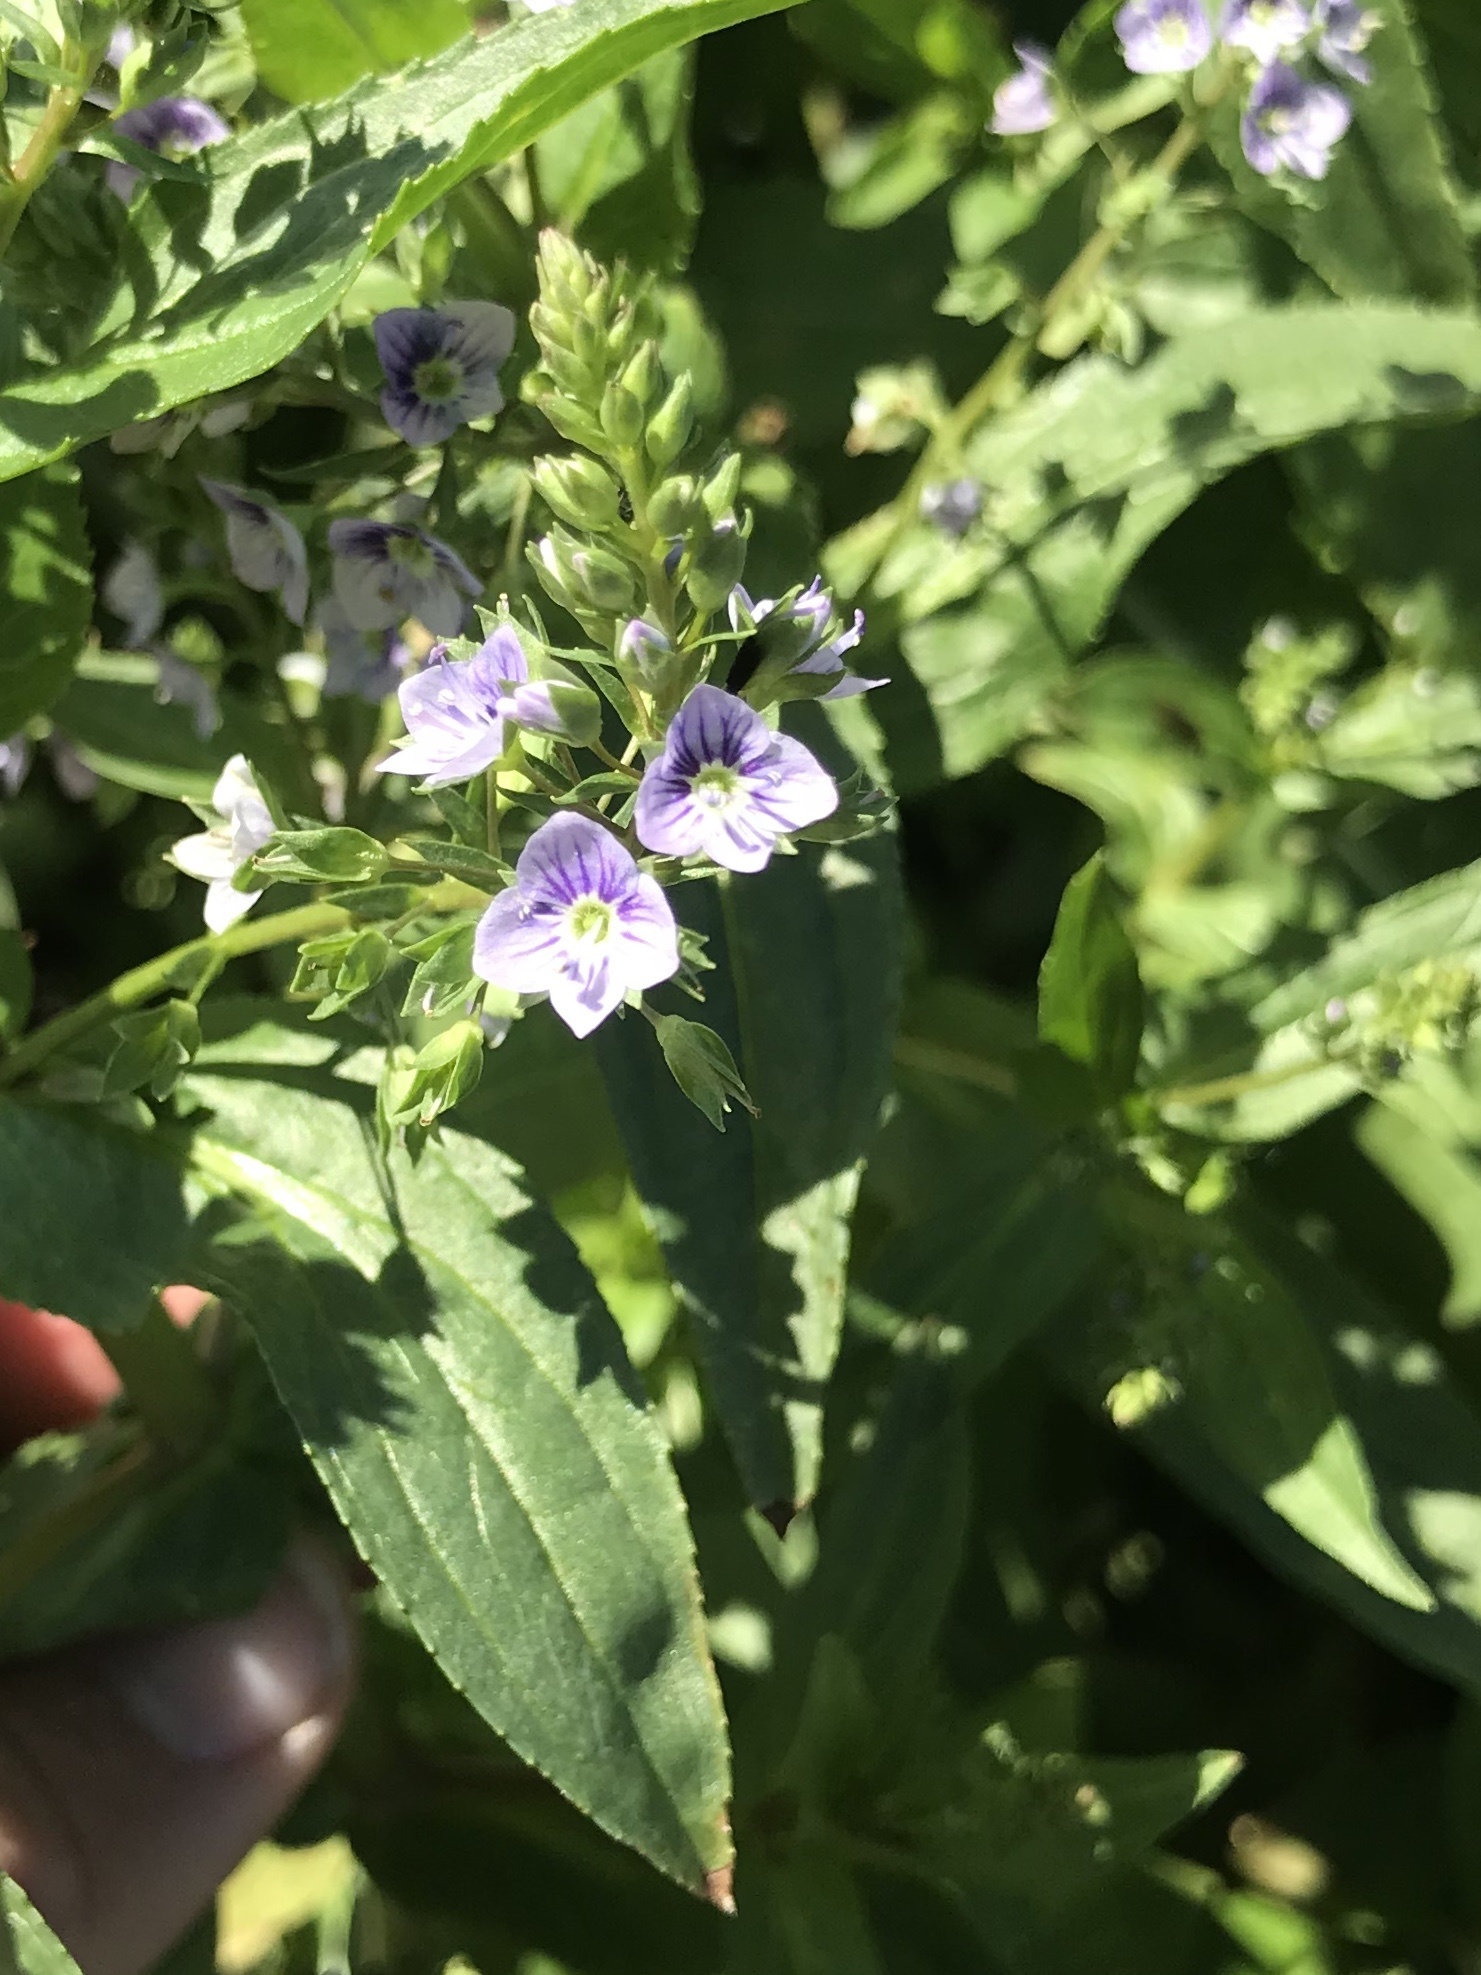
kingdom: Plantae
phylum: Tracheophyta
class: Magnoliopsida
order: Lamiales
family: Plantaginaceae
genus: Veronica
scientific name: Veronica anagallis-aquatica
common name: Water speedwell
